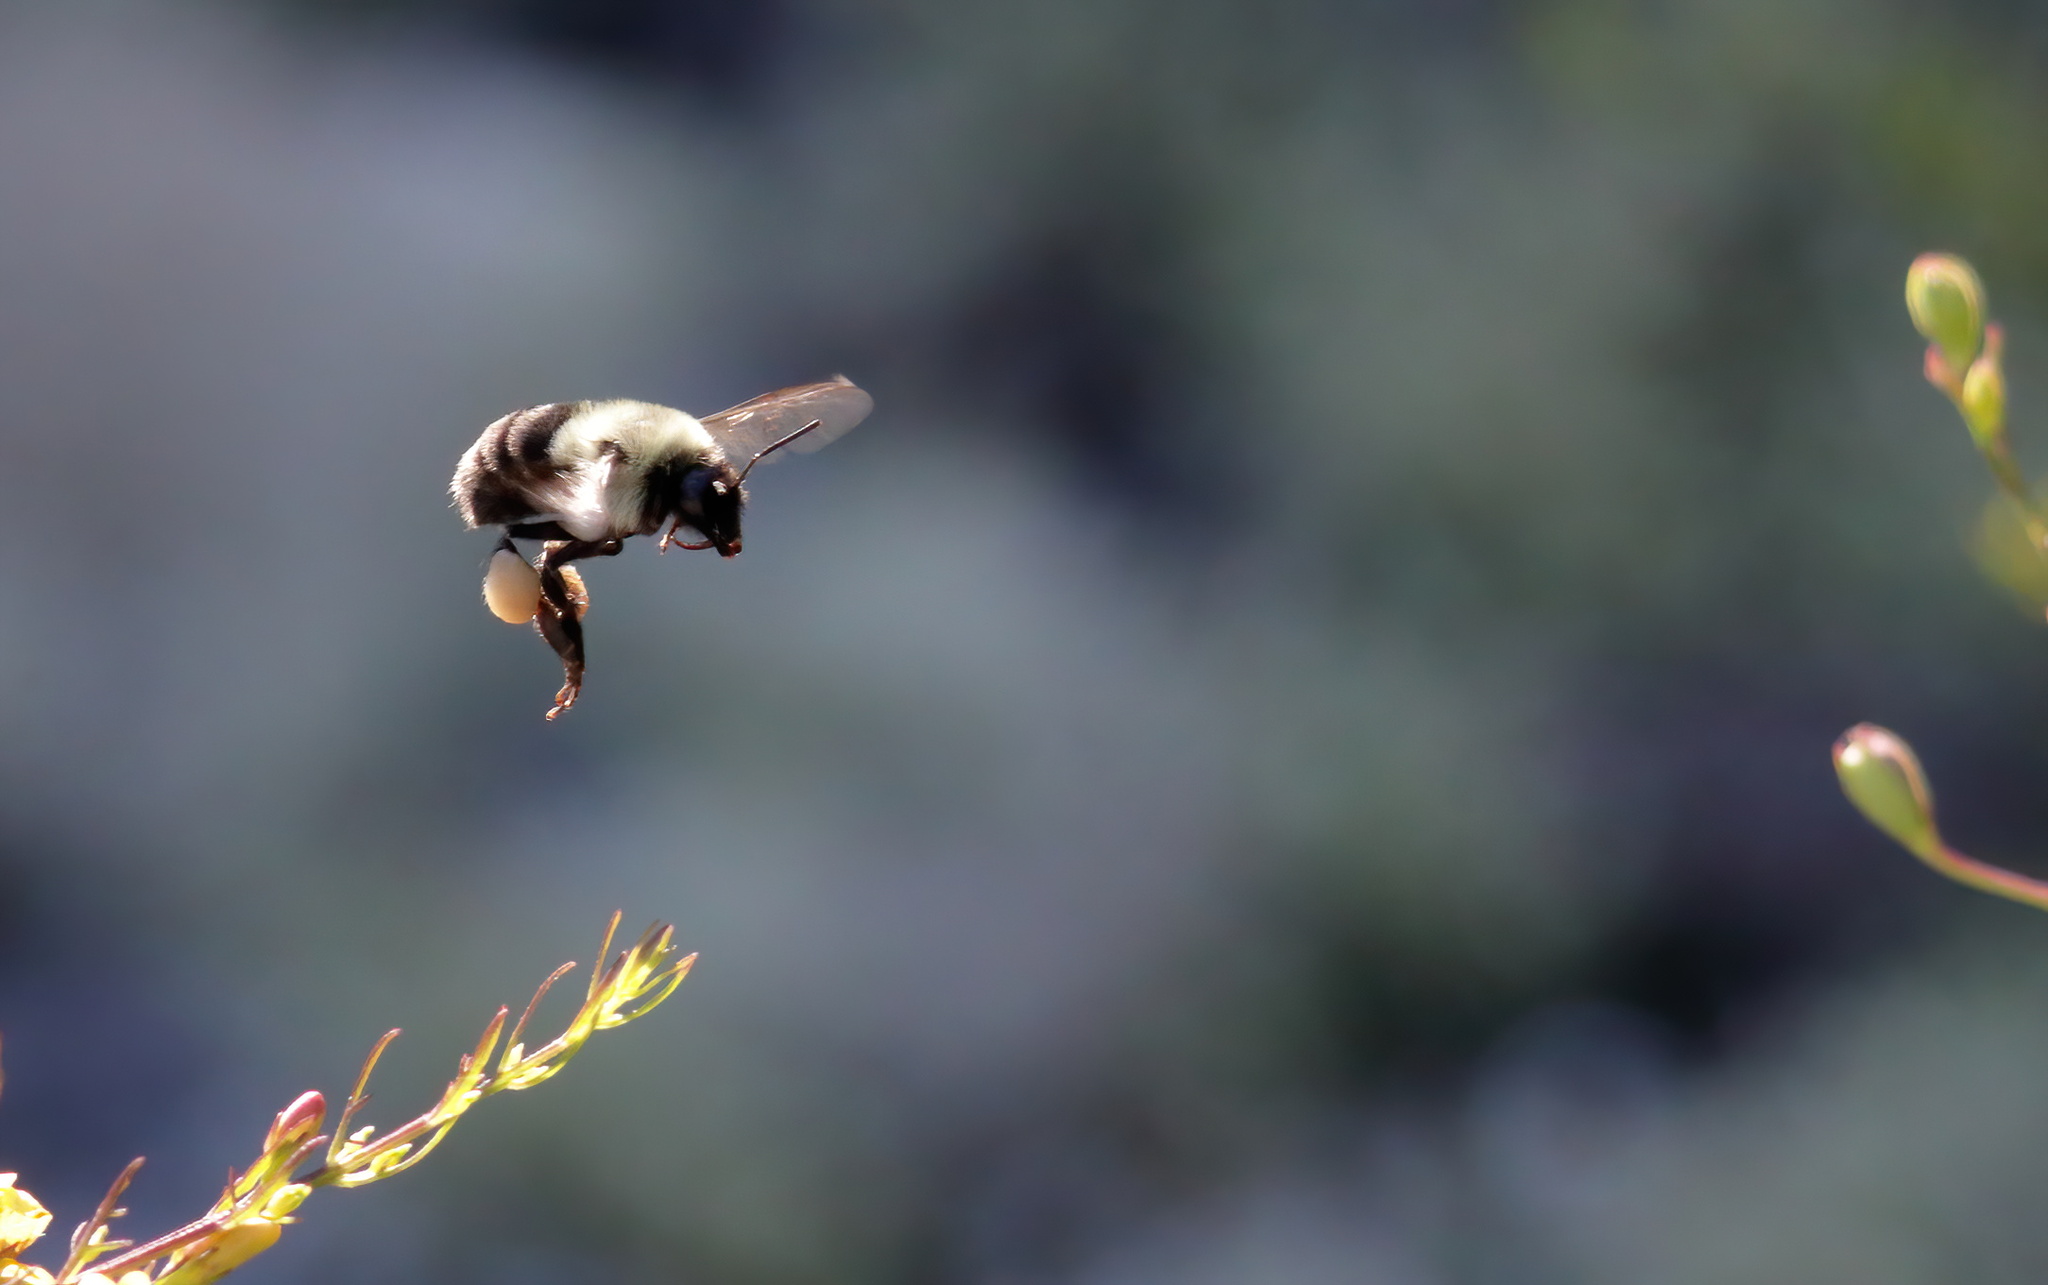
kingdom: Animalia
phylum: Arthropoda
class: Insecta
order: Hymenoptera
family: Apidae
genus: Bombus
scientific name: Bombus impatiens
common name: Common eastern bumble bee
